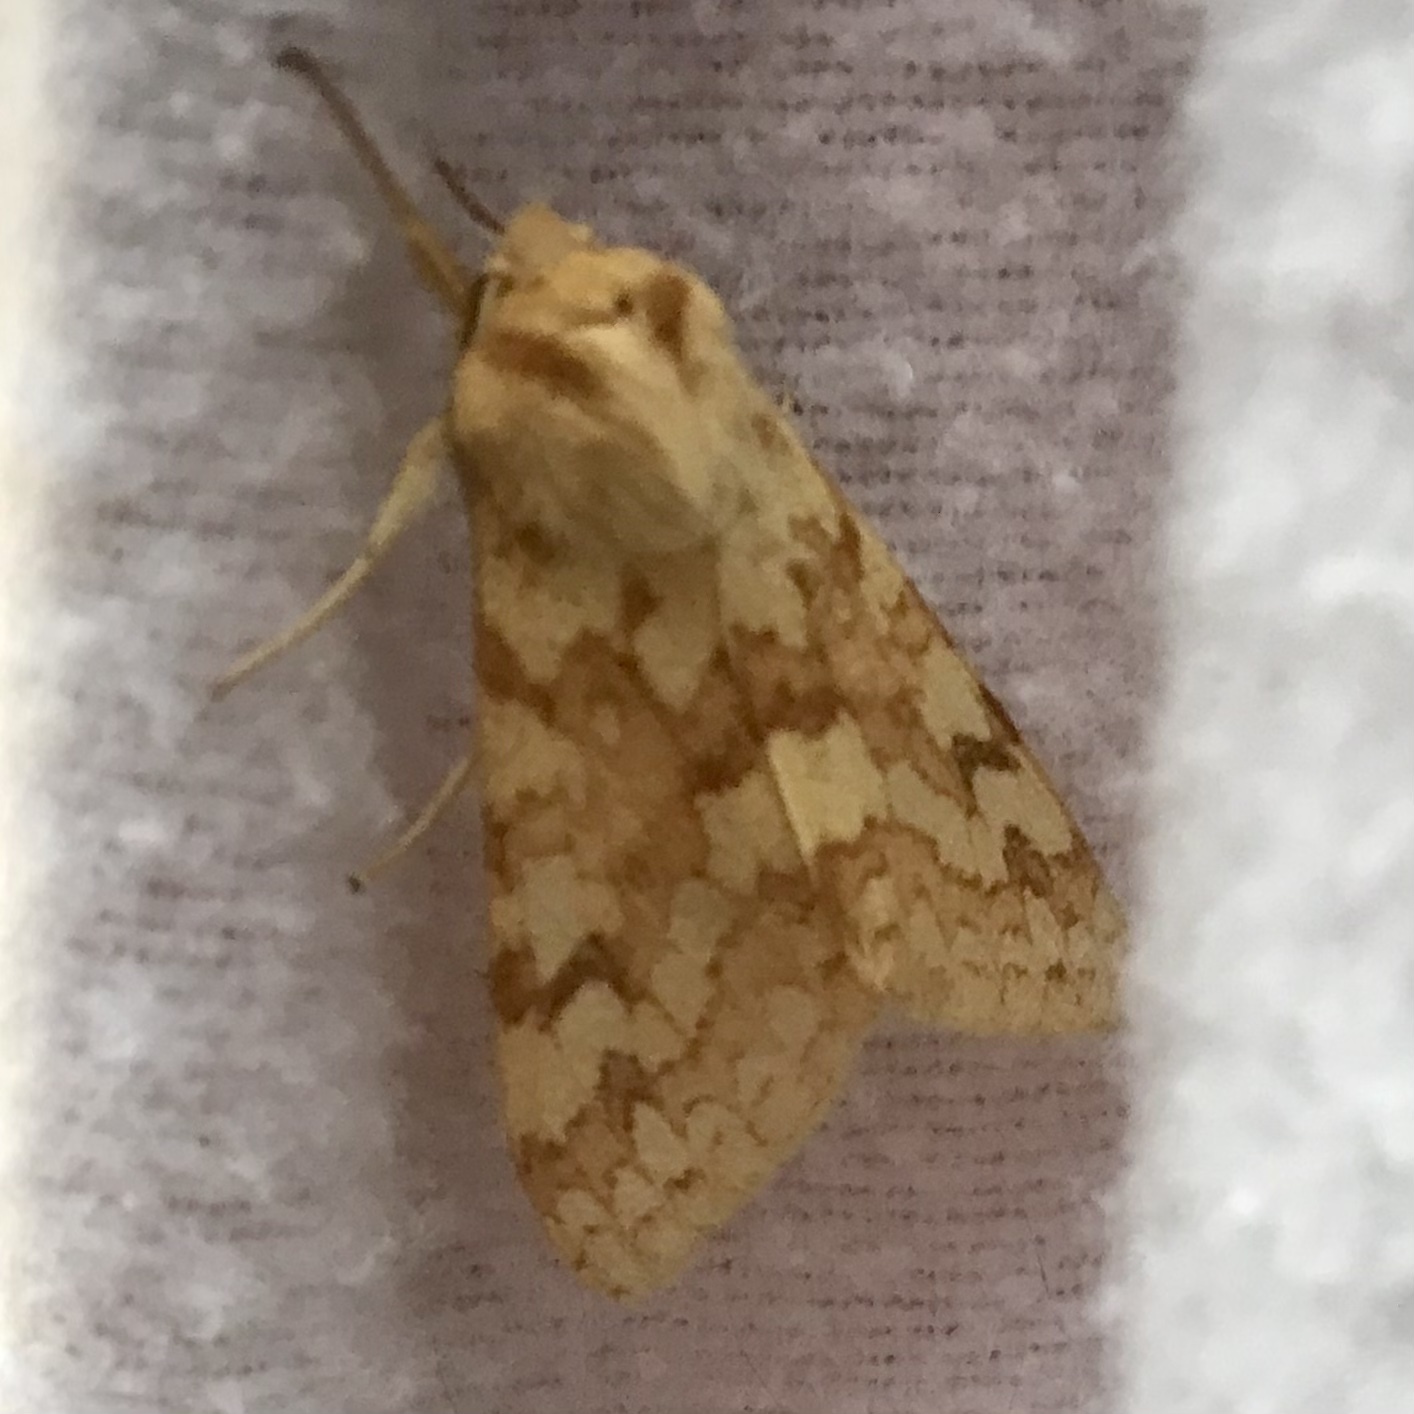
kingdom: Animalia
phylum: Arthropoda
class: Insecta
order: Lepidoptera
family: Erebidae
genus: Lophocampa
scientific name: Lophocampa maculata
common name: Spotted tussock moth
